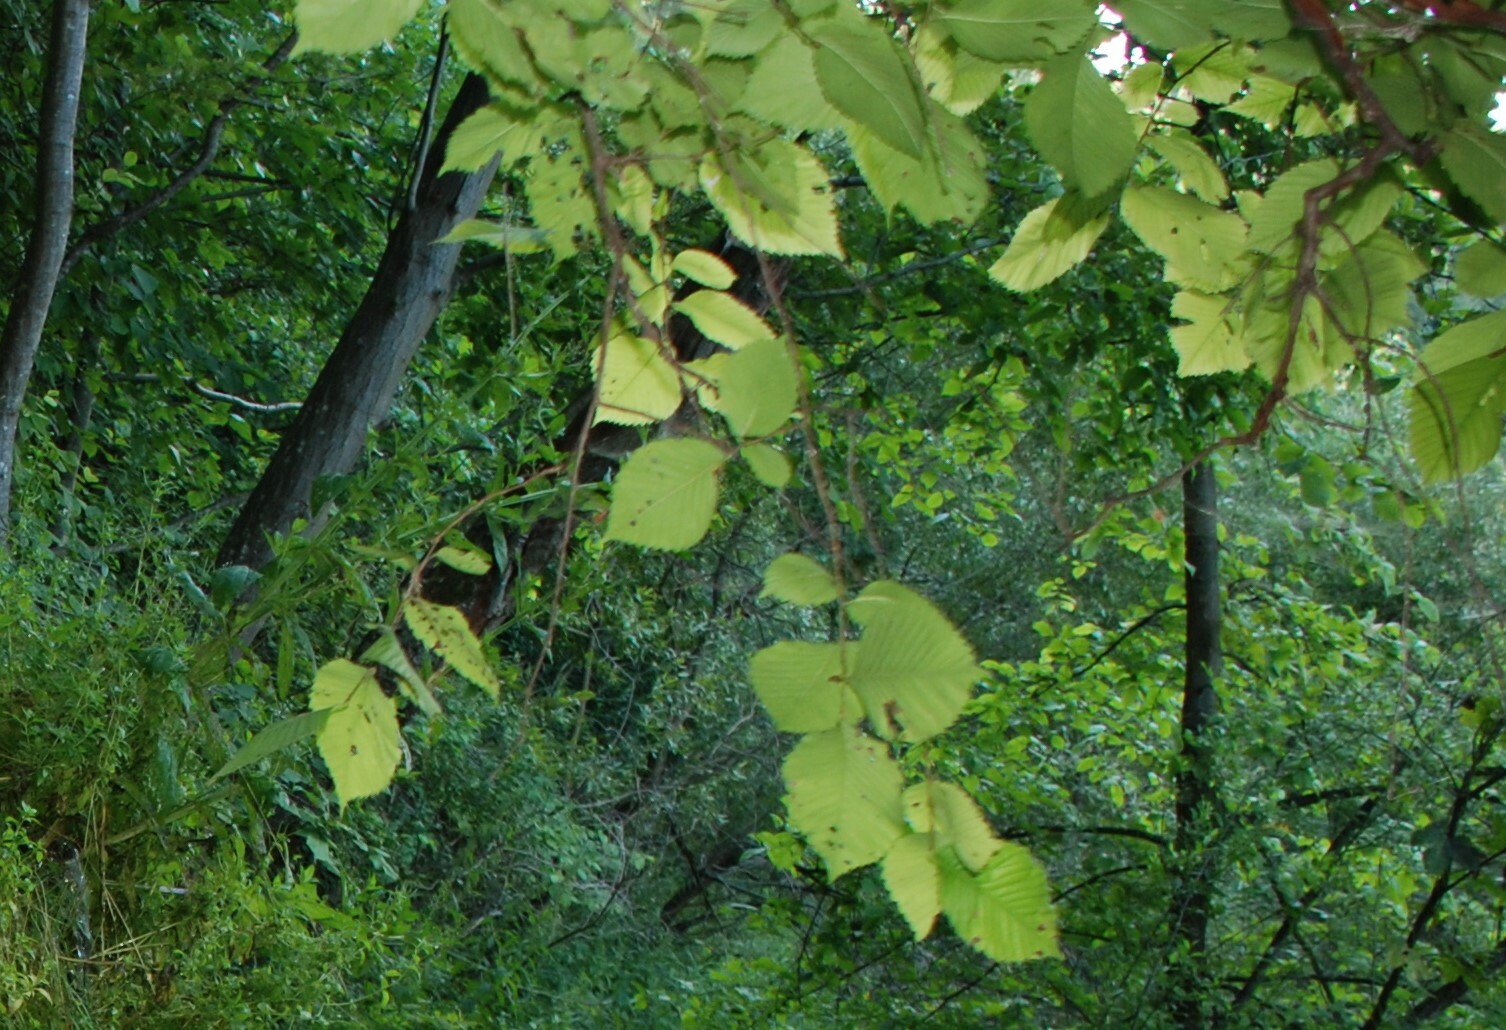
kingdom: Plantae
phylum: Tracheophyta
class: Magnoliopsida
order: Rosales
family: Ulmaceae
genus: Ulmus
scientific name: Ulmus laevis
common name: European white-elm
